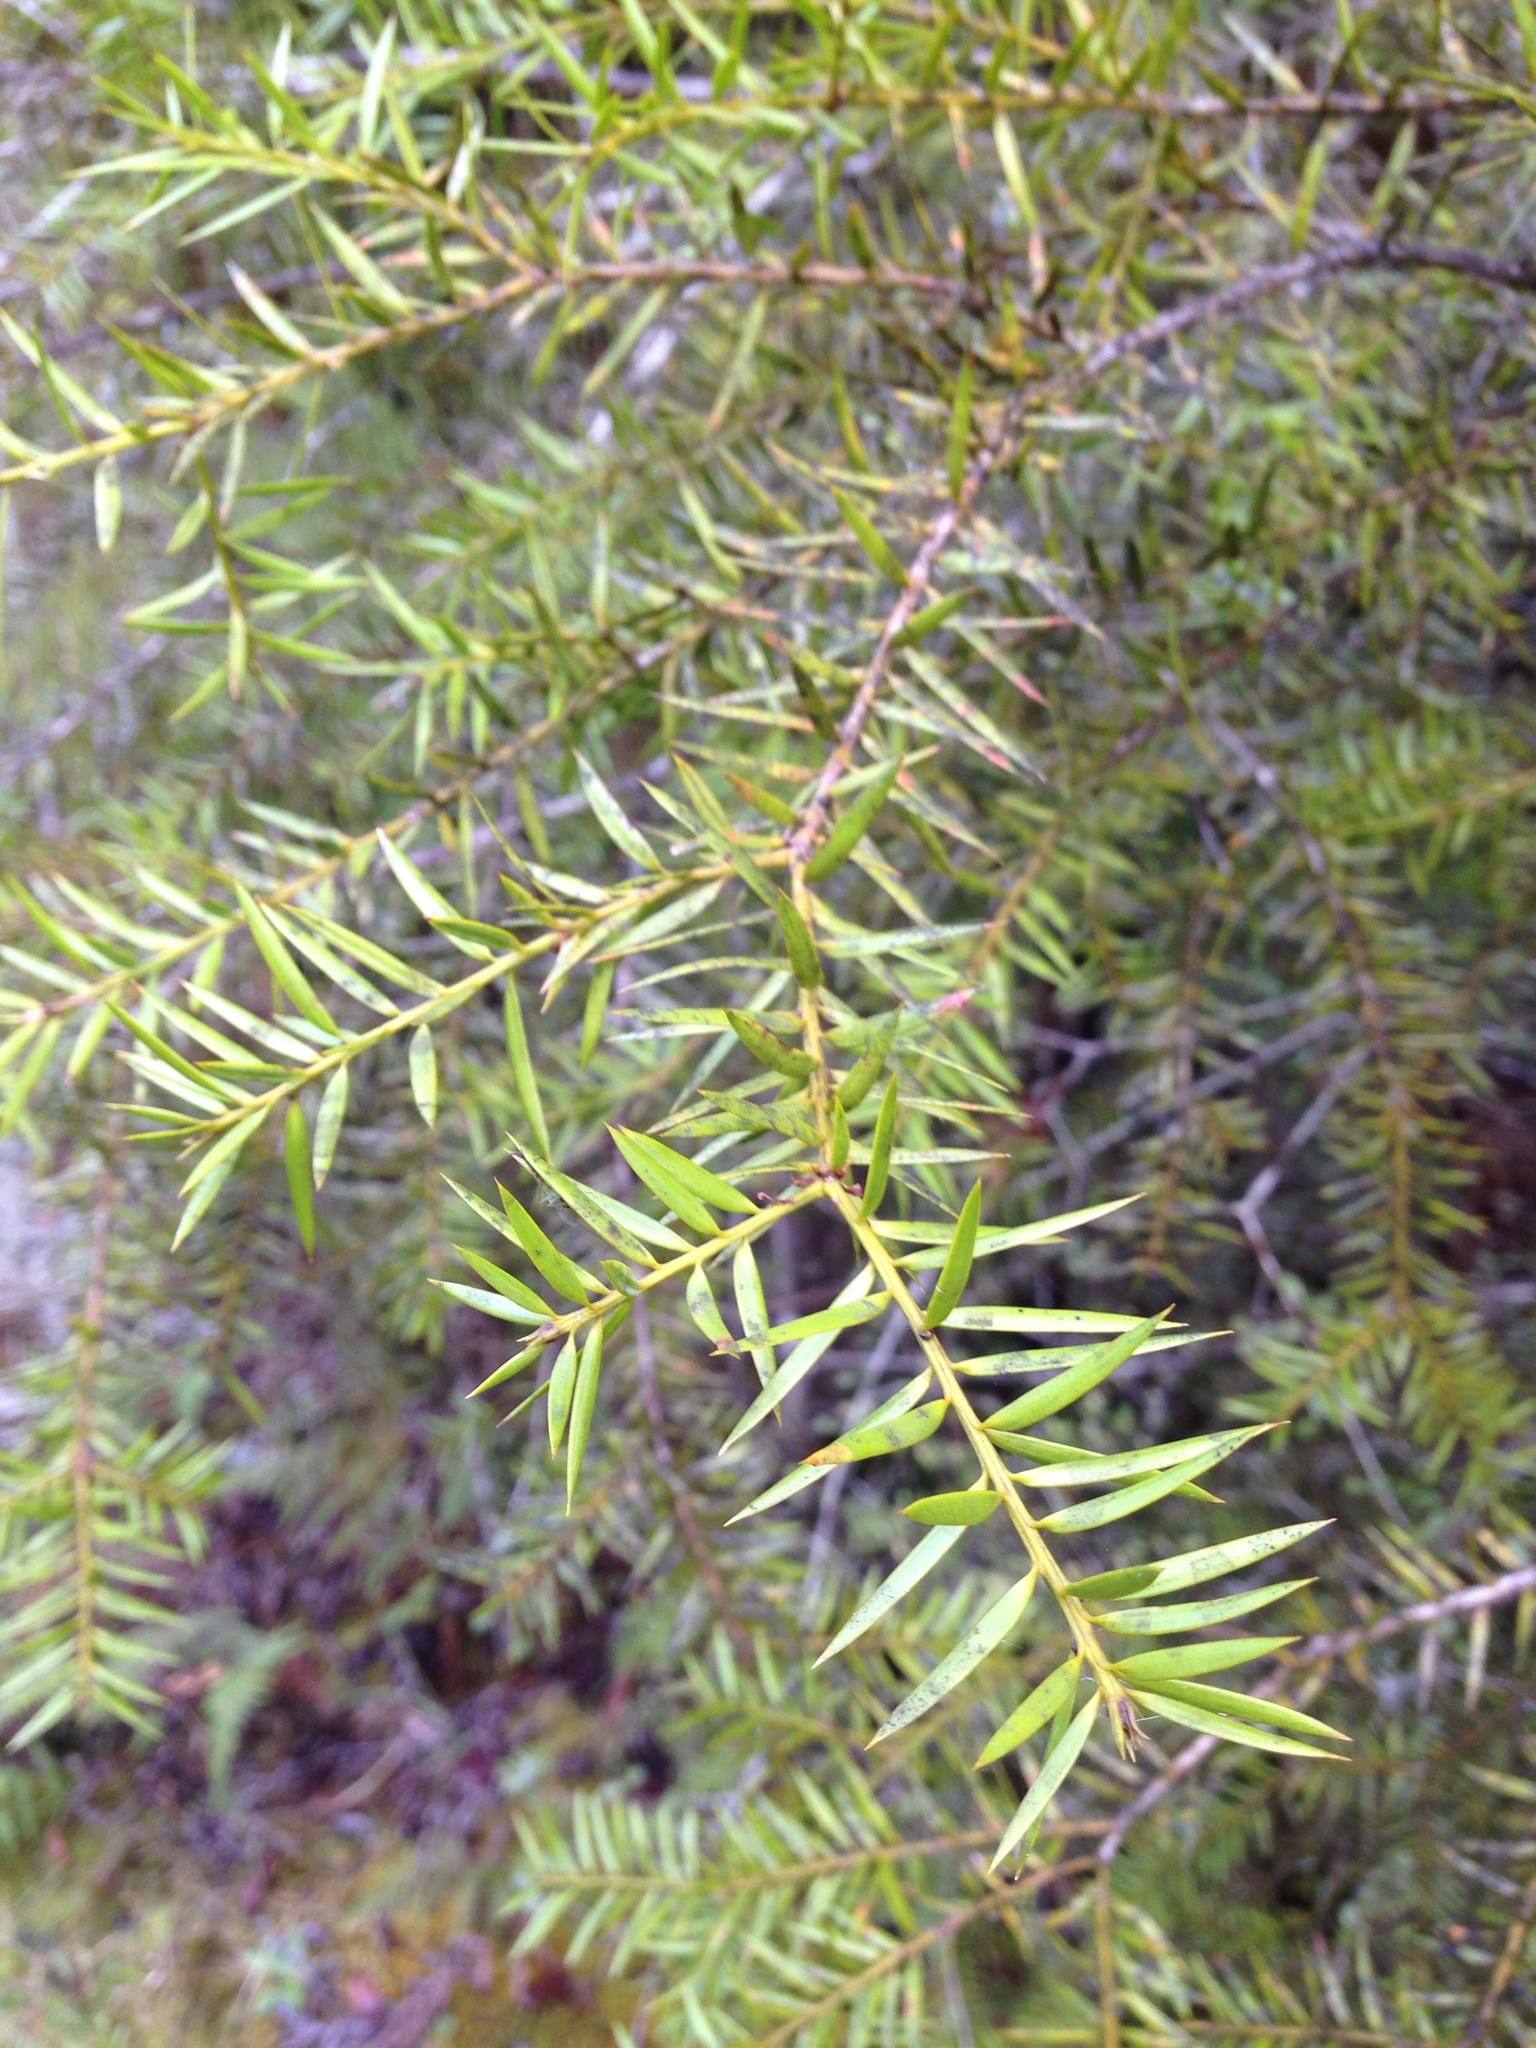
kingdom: Plantae
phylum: Tracheophyta
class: Pinopsida
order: Pinales
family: Podocarpaceae
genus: Podocarpus
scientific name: Podocarpus acutifolius
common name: Needle-leaved totara
